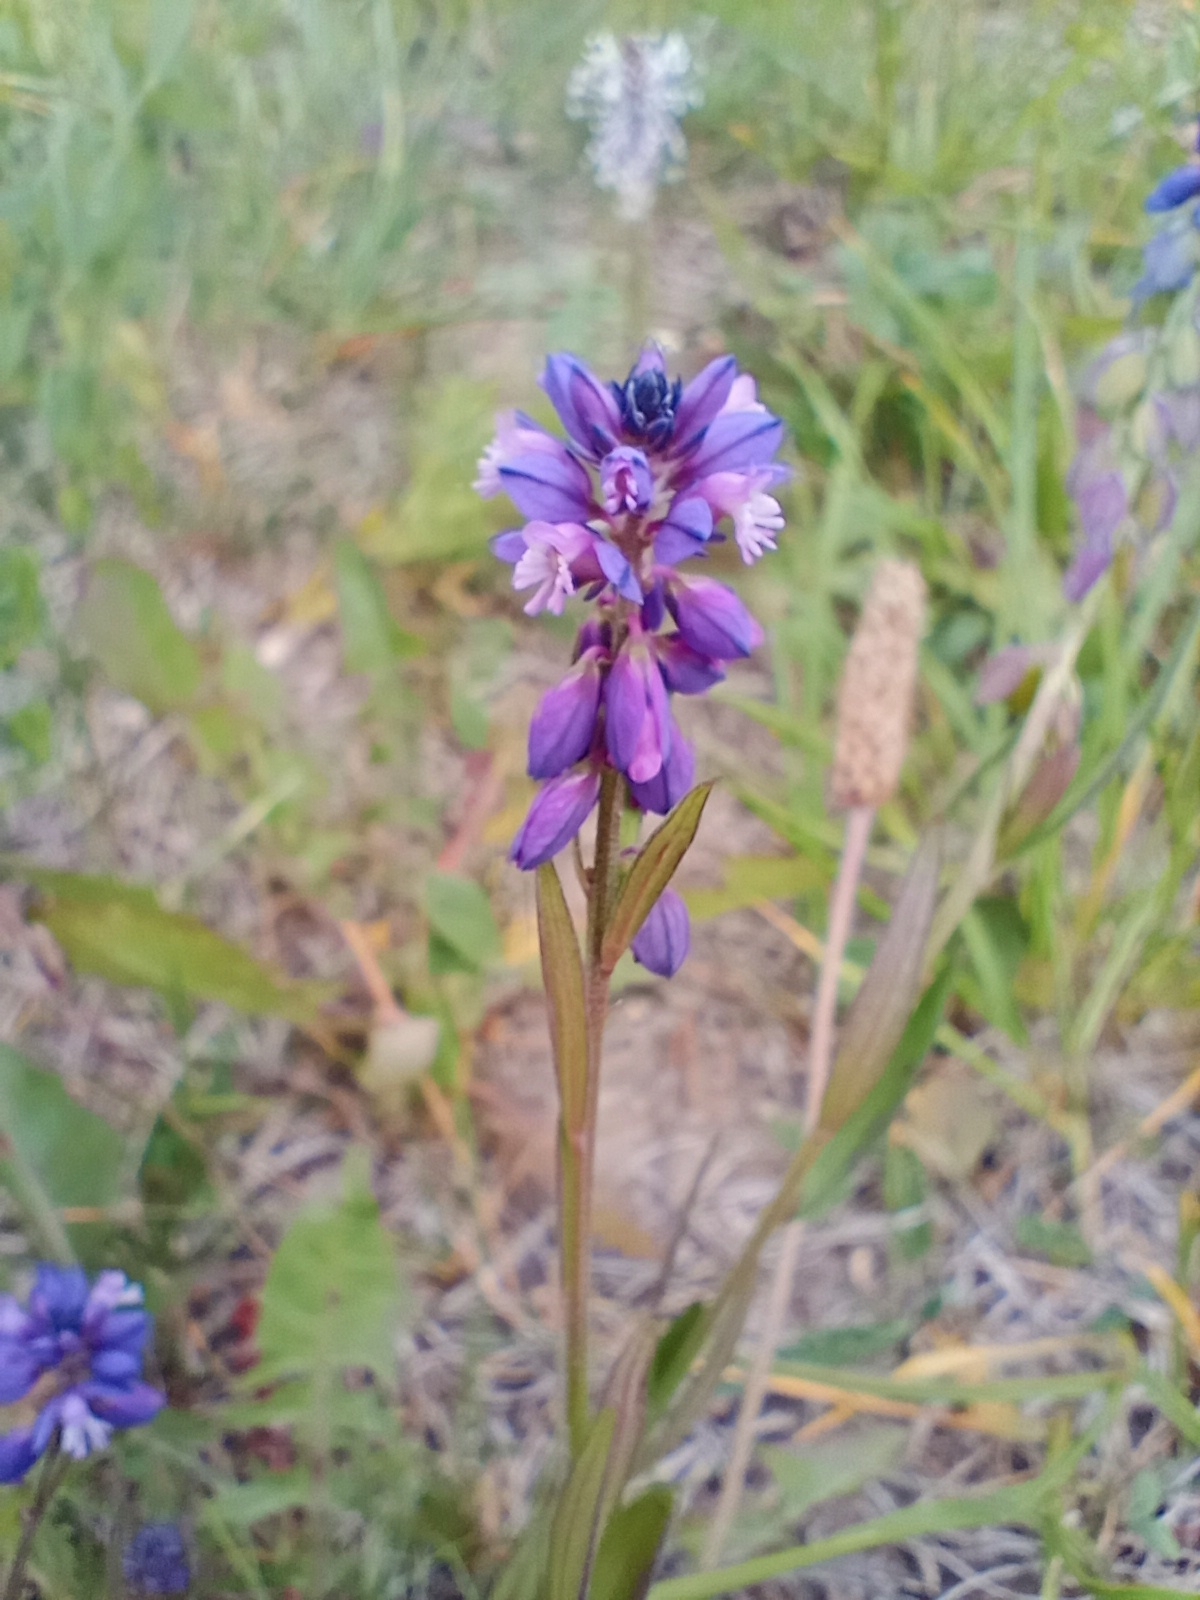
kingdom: Plantae
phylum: Tracheophyta
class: Magnoliopsida
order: Fabales
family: Polygalaceae
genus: Polygala
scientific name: Polygala comosa
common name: Tufted milkwort
